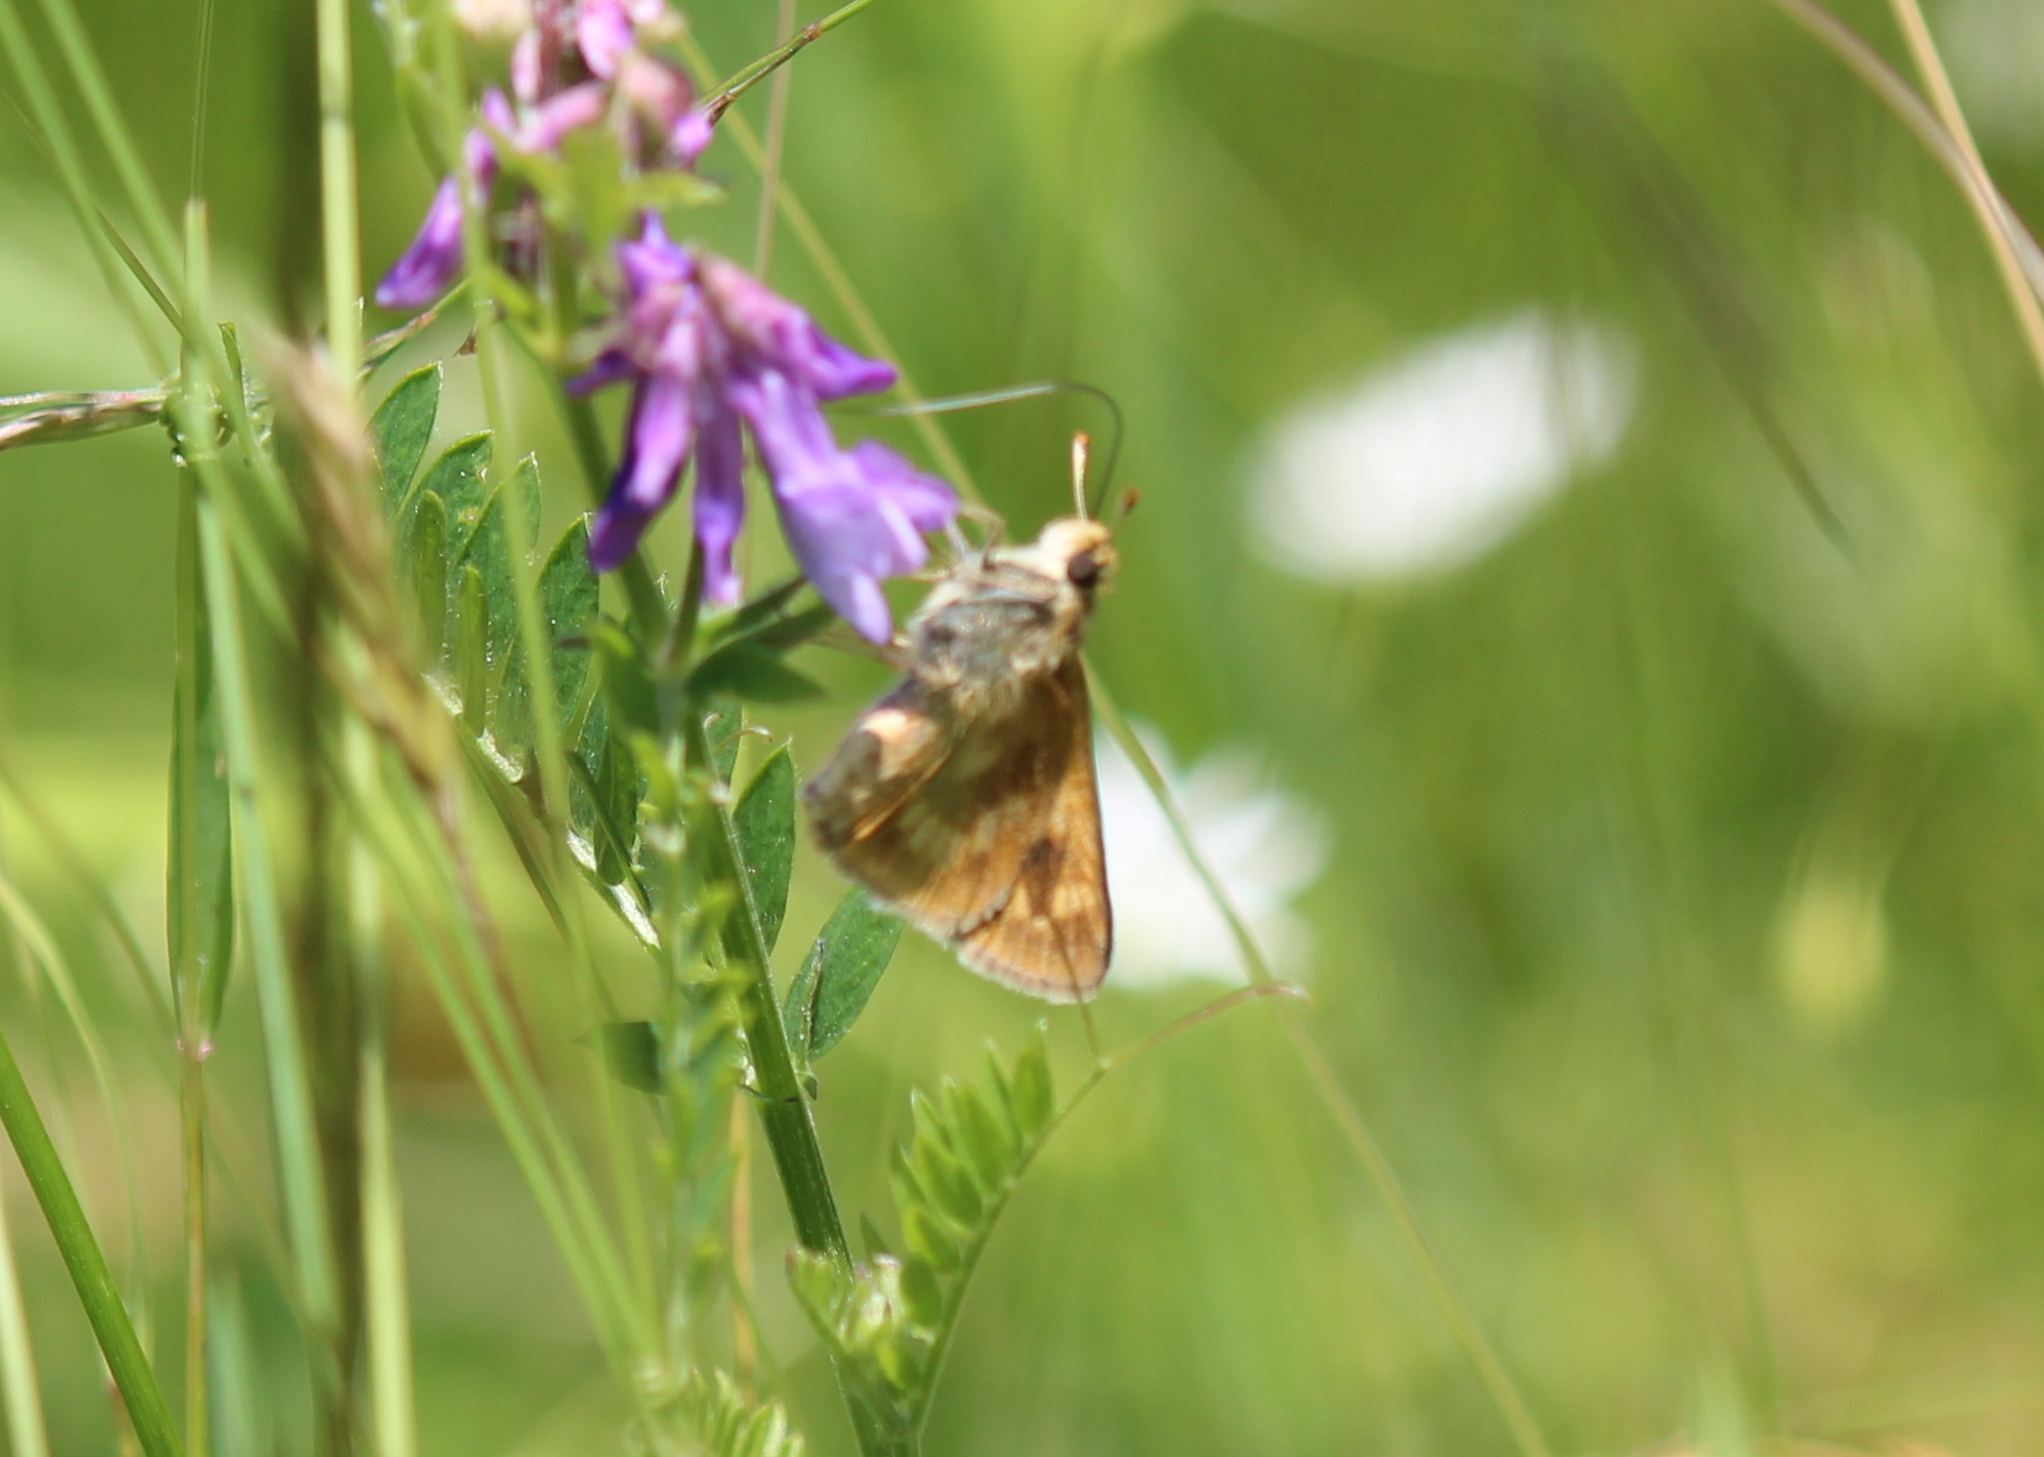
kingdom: Animalia
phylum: Arthropoda
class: Insecta
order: Lepidoptera
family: Hesperiidae
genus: Polites
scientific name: Polites mystic
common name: Long dash
